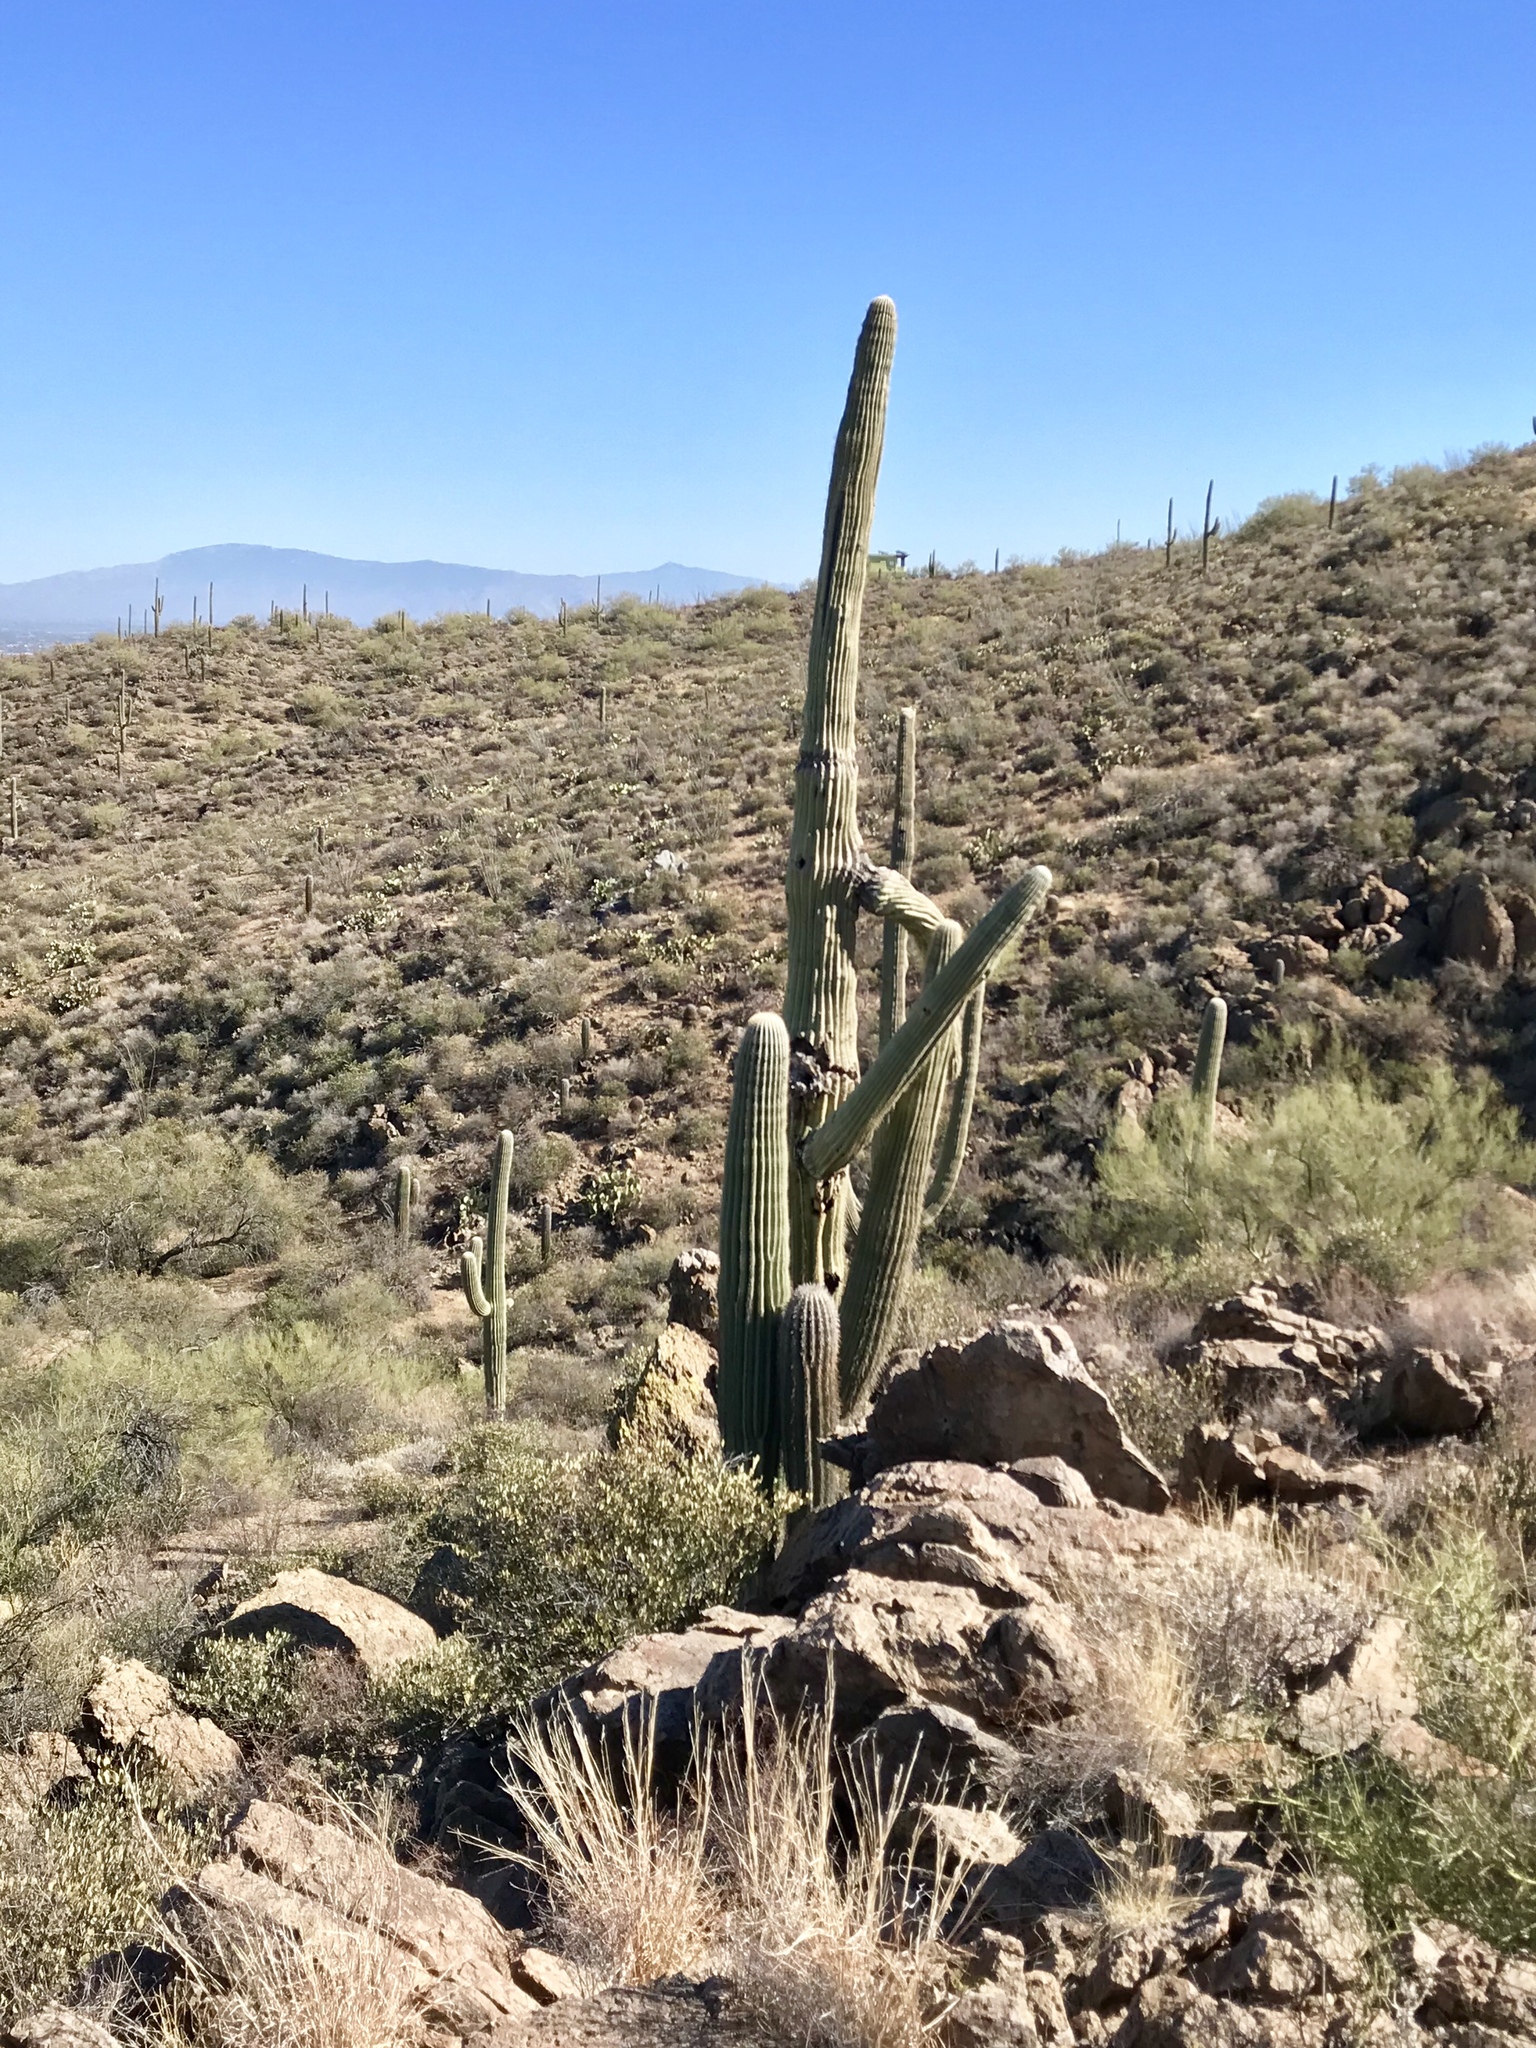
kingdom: Plantae
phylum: Tracheophyta
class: Magnoliopsida
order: Caryophyllales
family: Cactaceae
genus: Carnegiea
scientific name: Carnegiea gigantea
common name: Saguaro
